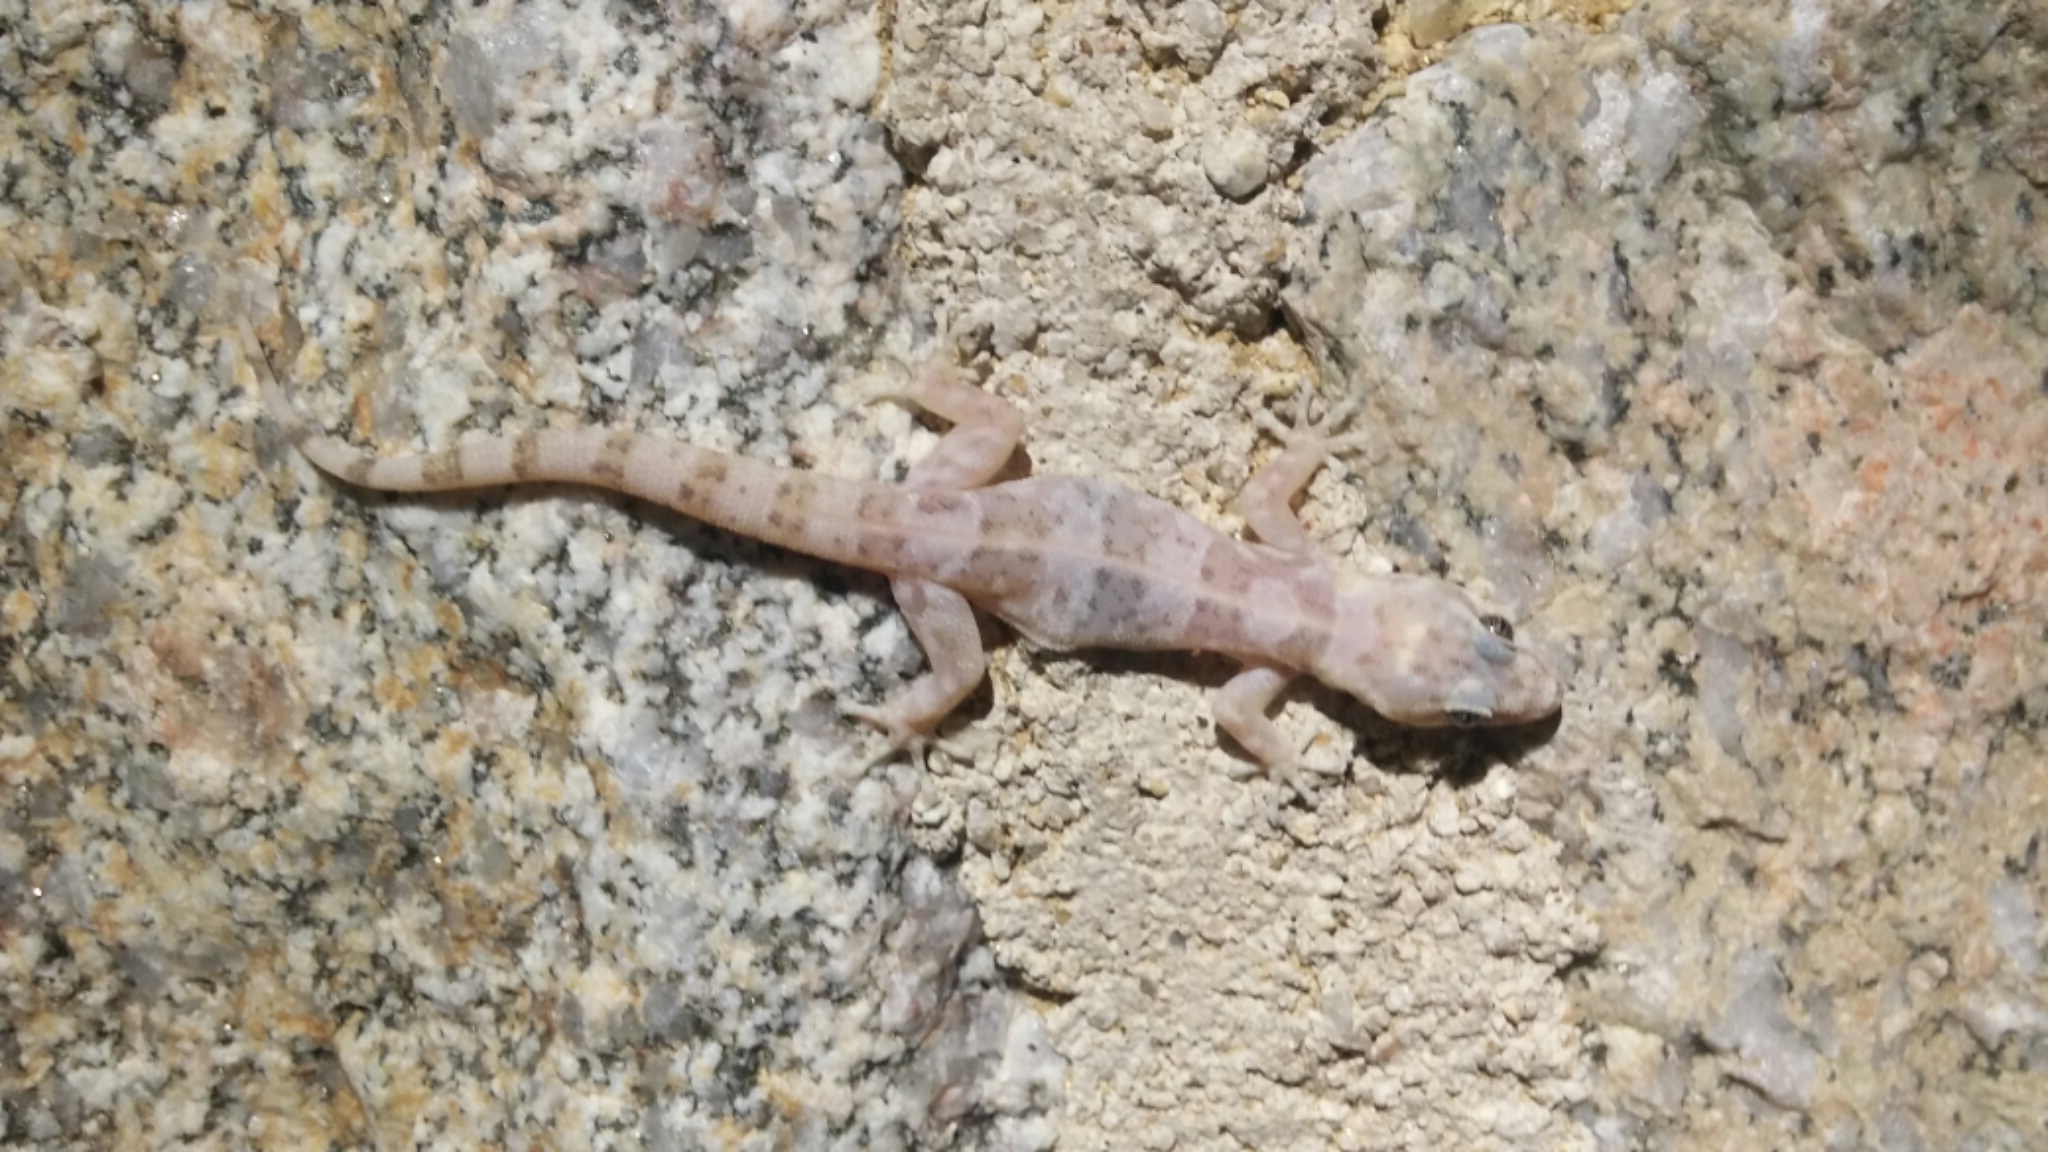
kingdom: Animalia
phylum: Chordata
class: Squamata
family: Phyllodactylidae
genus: Phyllodactylus
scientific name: Phyllodactylus unctus
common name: San lucan  gecko
